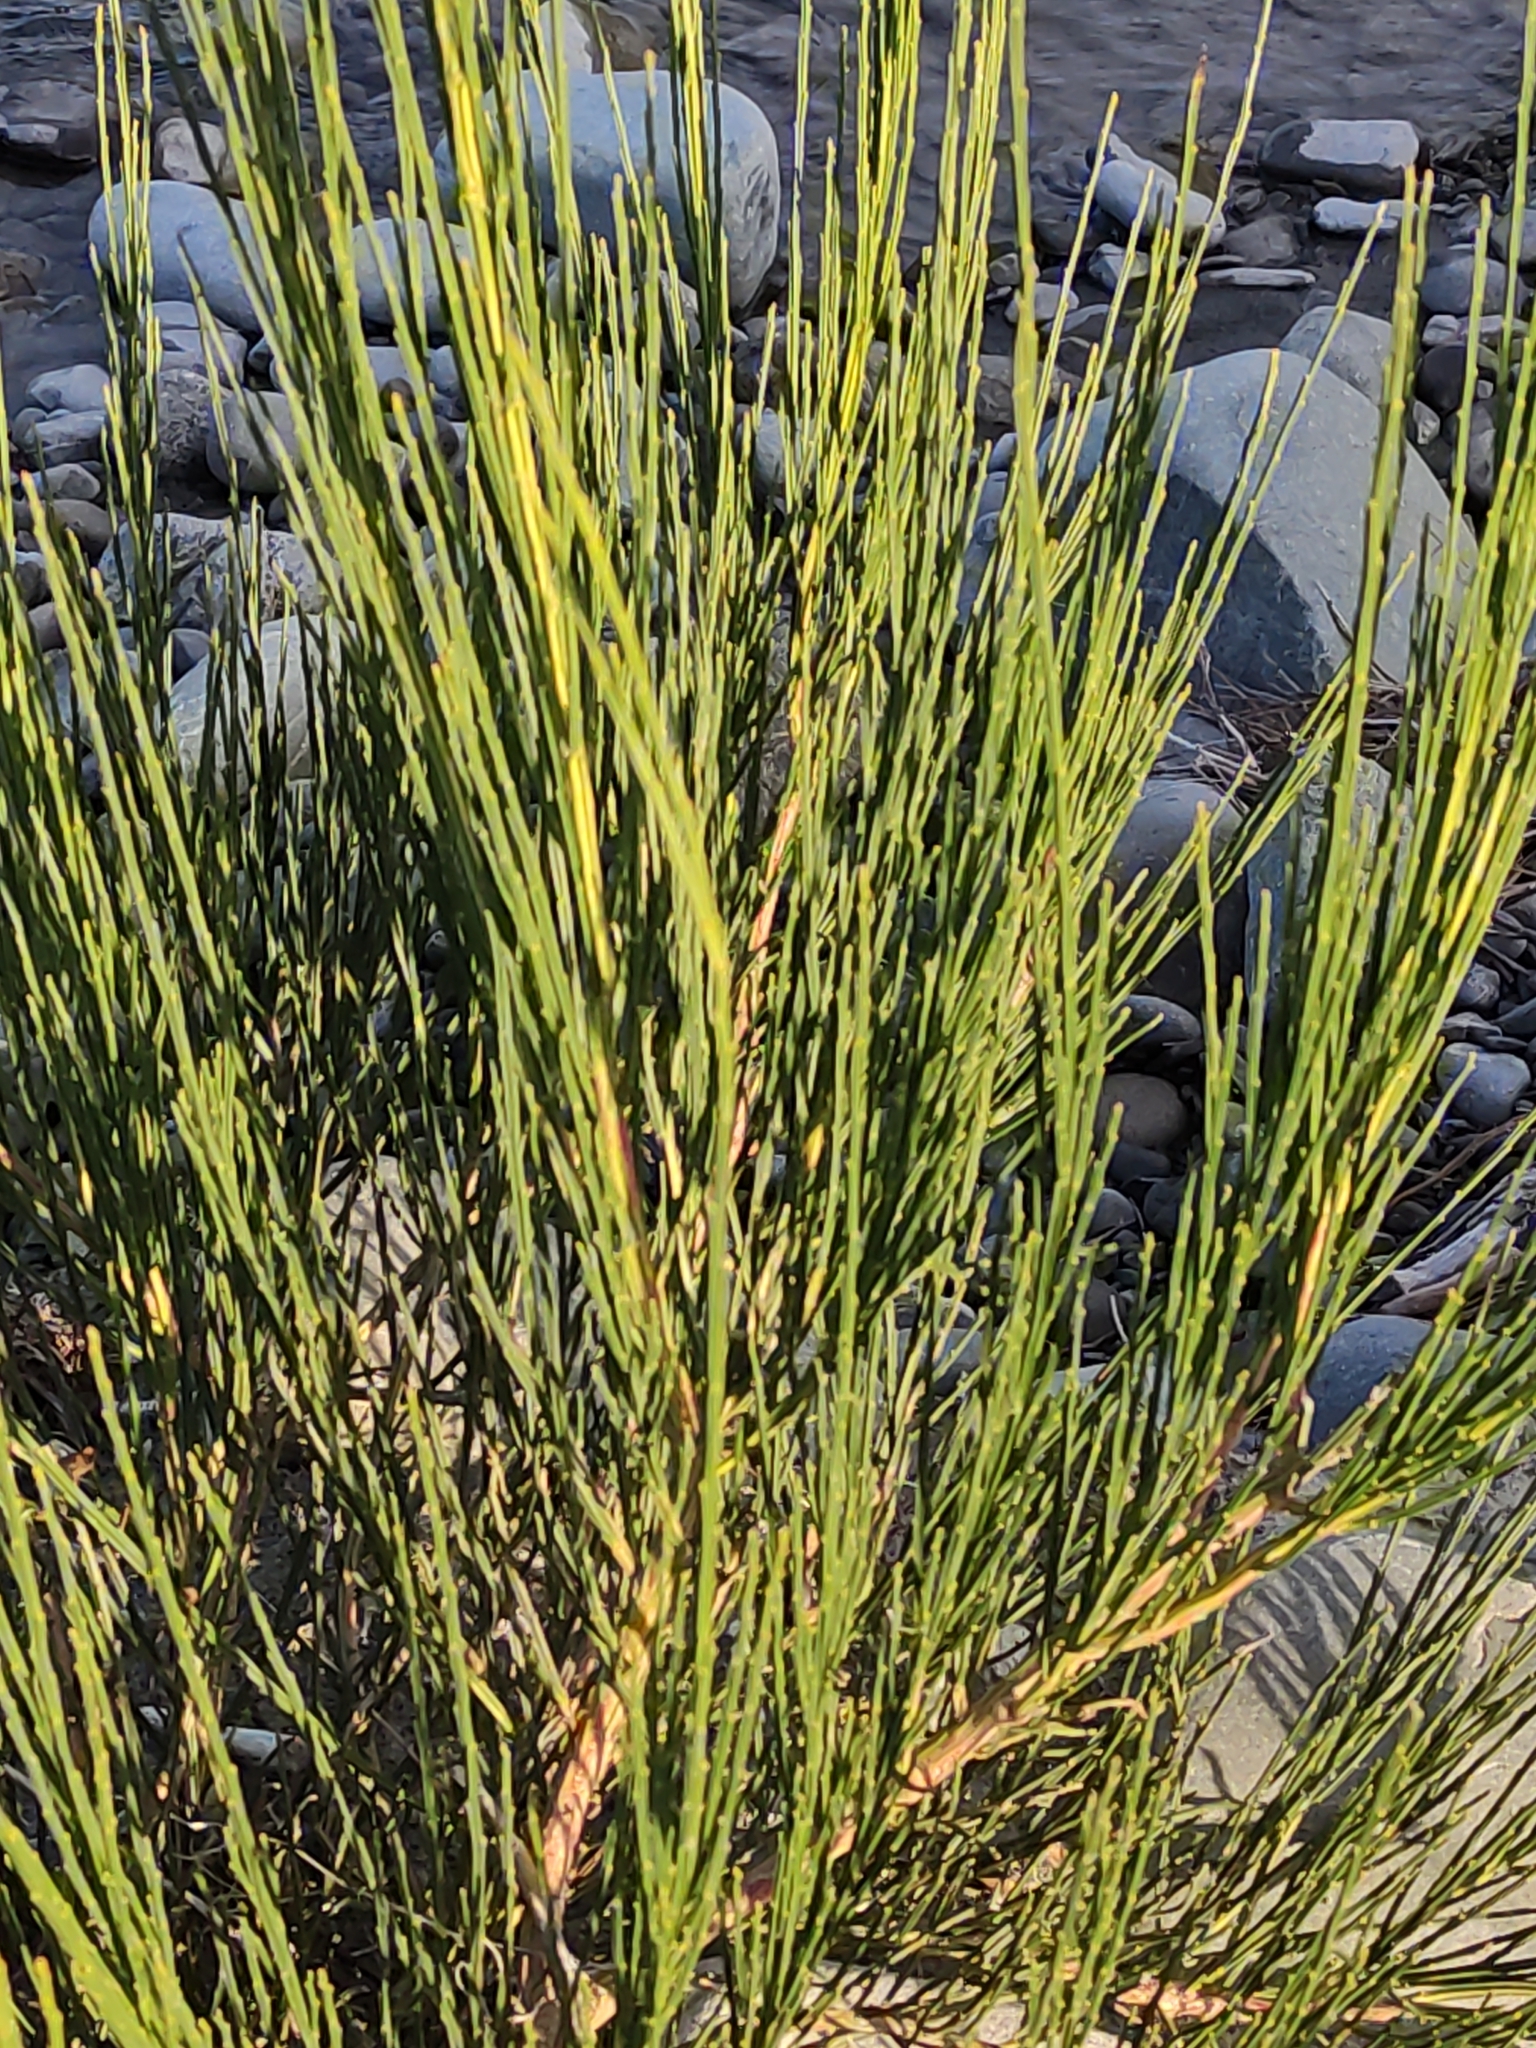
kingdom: Plantae
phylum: Tracheophyta
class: Magnoliopsida
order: Fabales
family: Fabaceae
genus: Cytisus
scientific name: Cytisus scoparius
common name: Scotch broom
